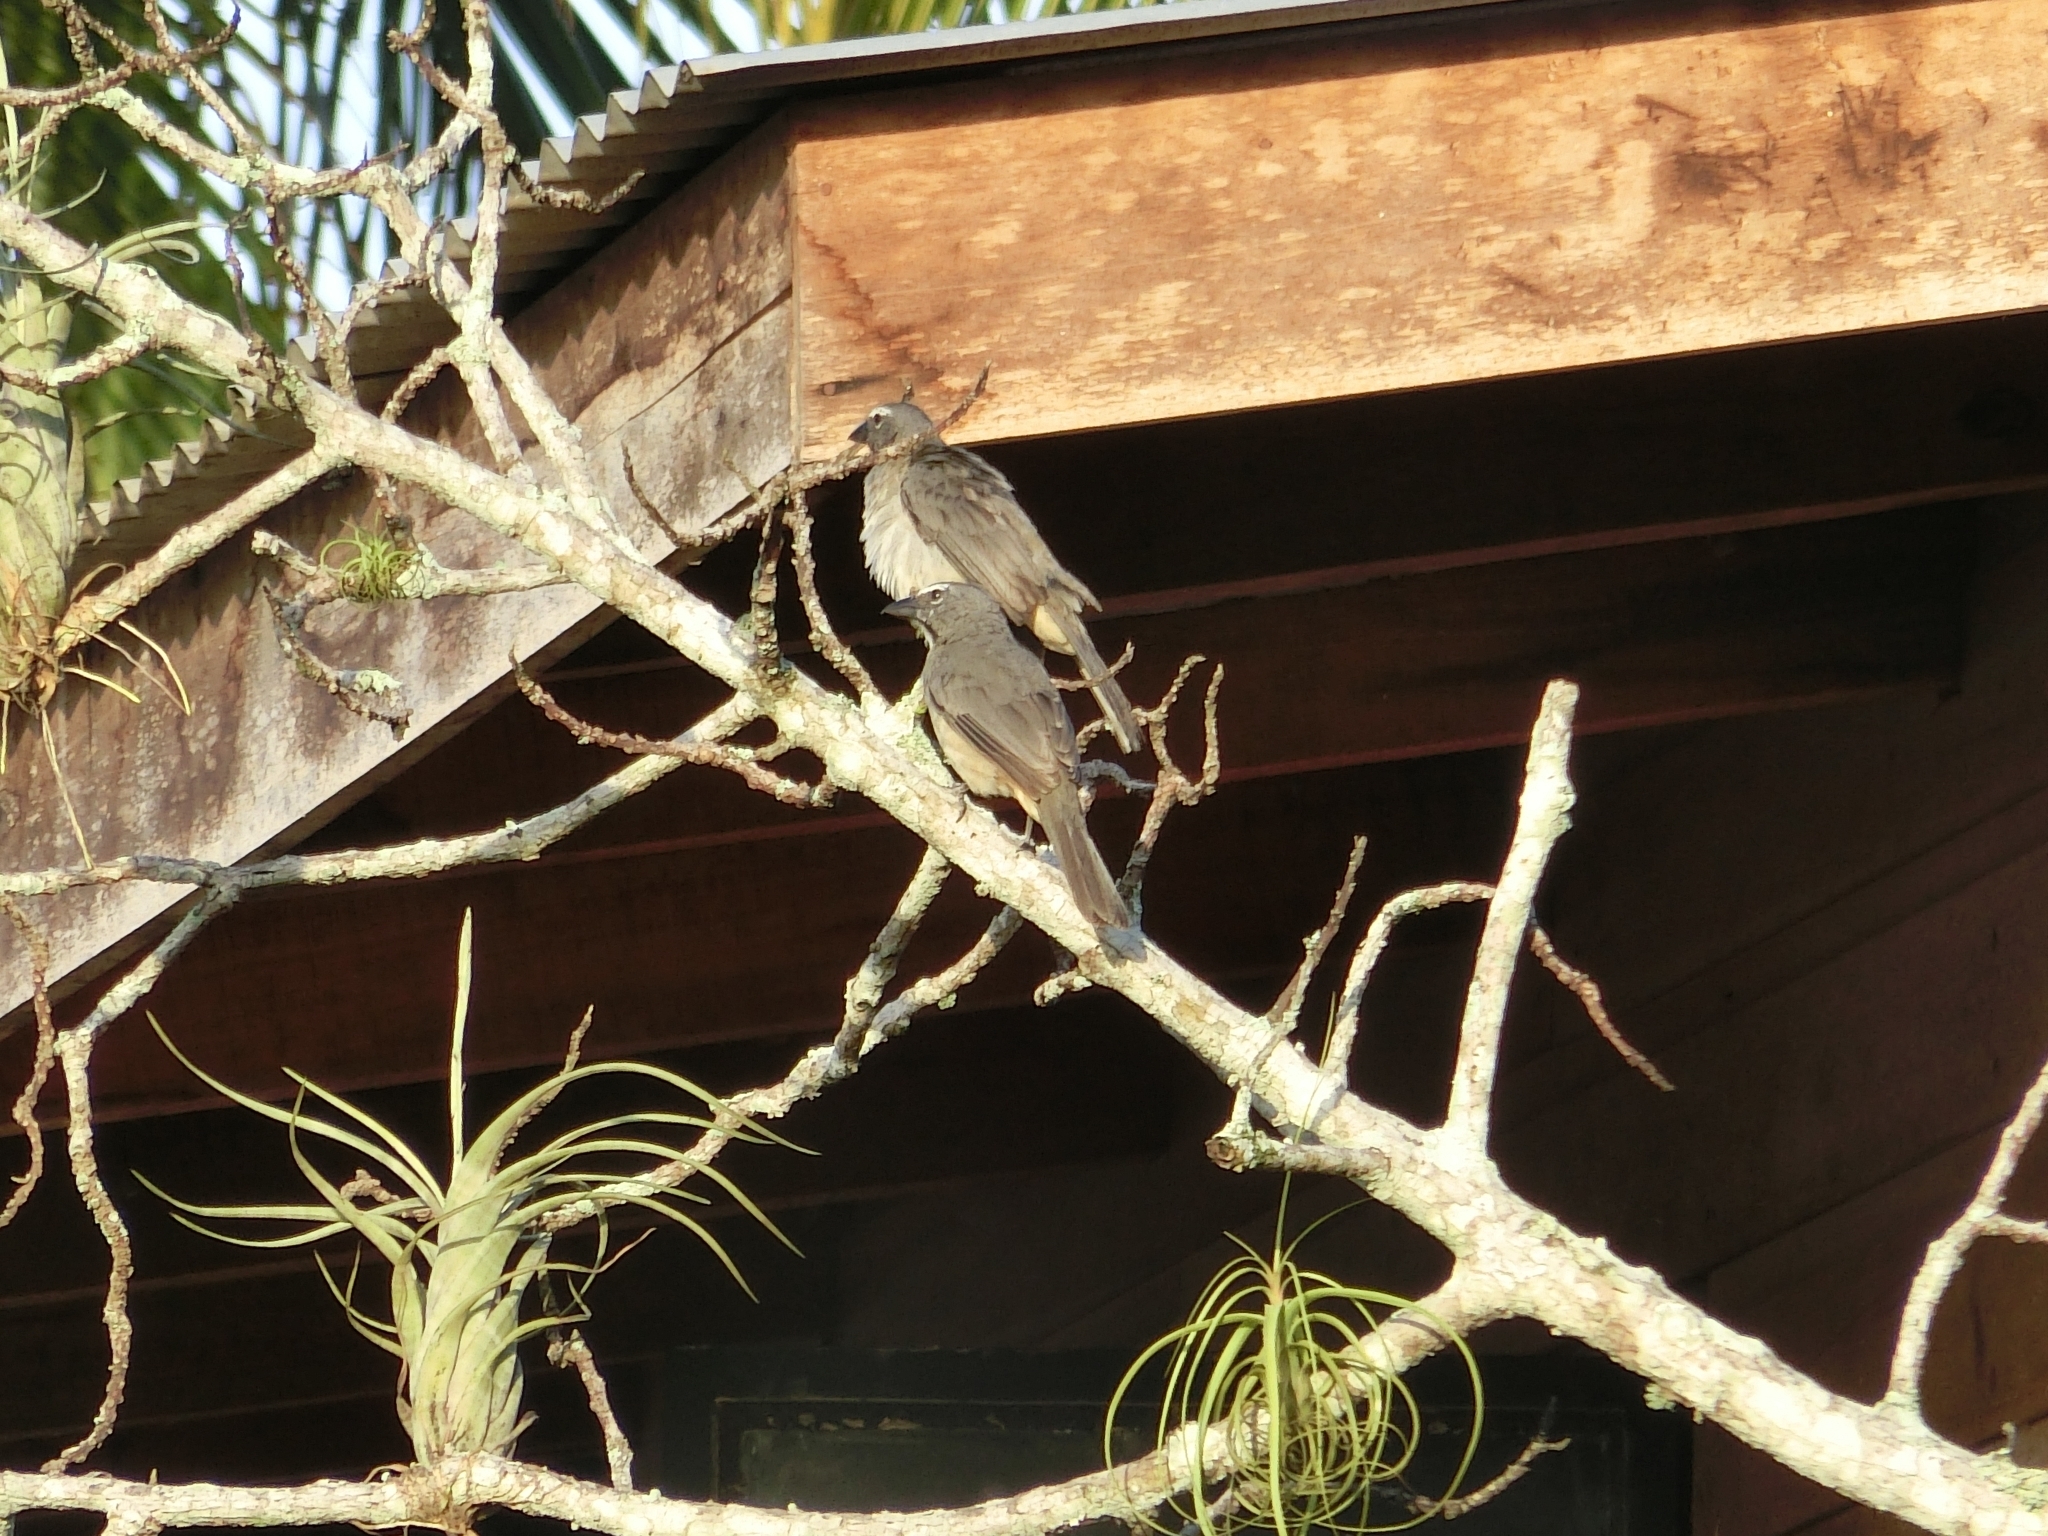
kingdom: Animalia
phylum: Chordata
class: Aves
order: Passeriformes
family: Thraupidae
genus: Saltator
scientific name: Saltator olivascens
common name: Caribbean grey saltator
